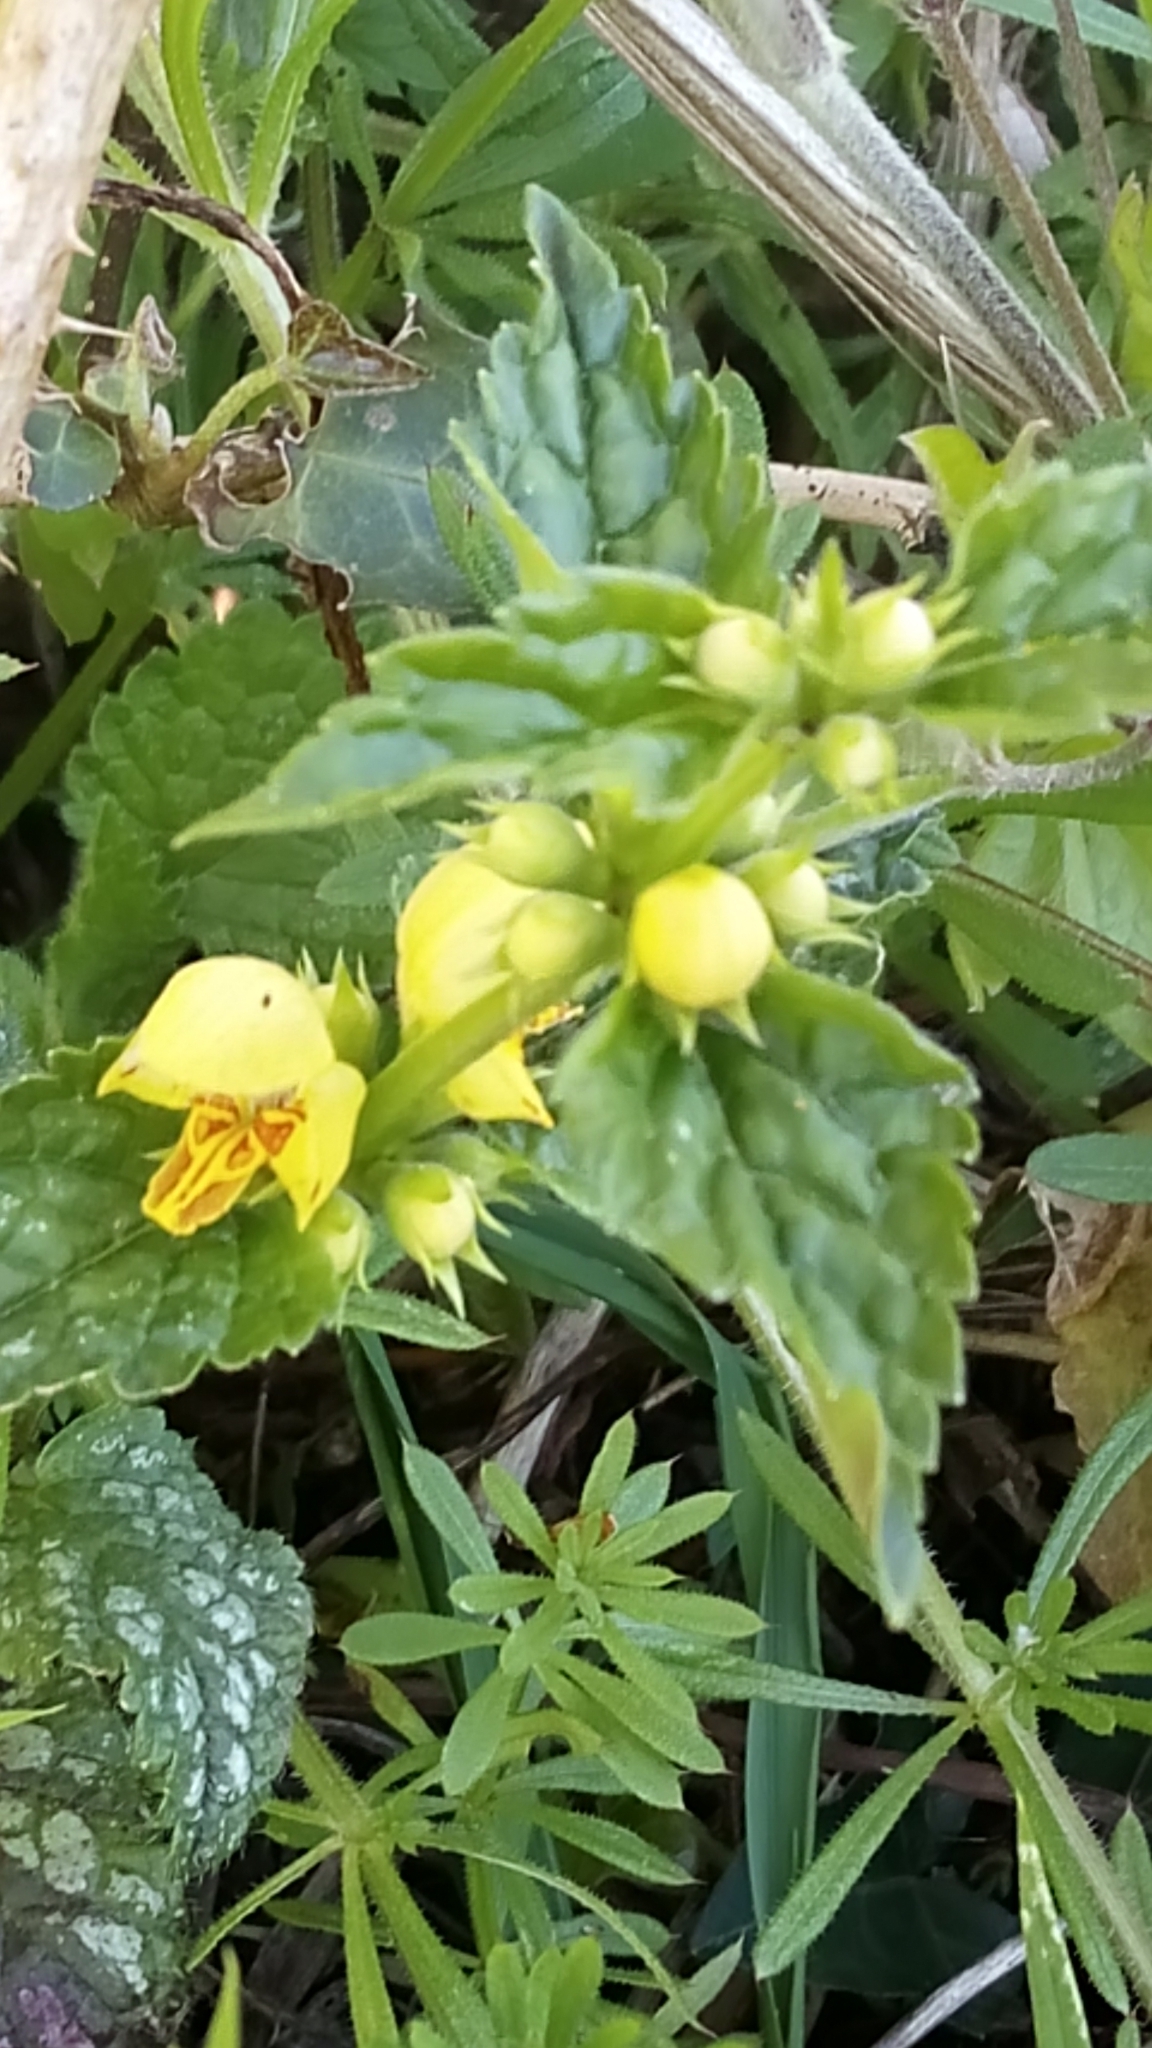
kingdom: Plantae
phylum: Tracheophyta
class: Magnoliopsida
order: Lamiales
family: Lamiaceae
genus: Lamium
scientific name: Lamium galeobdolon
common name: Yellow archangel
